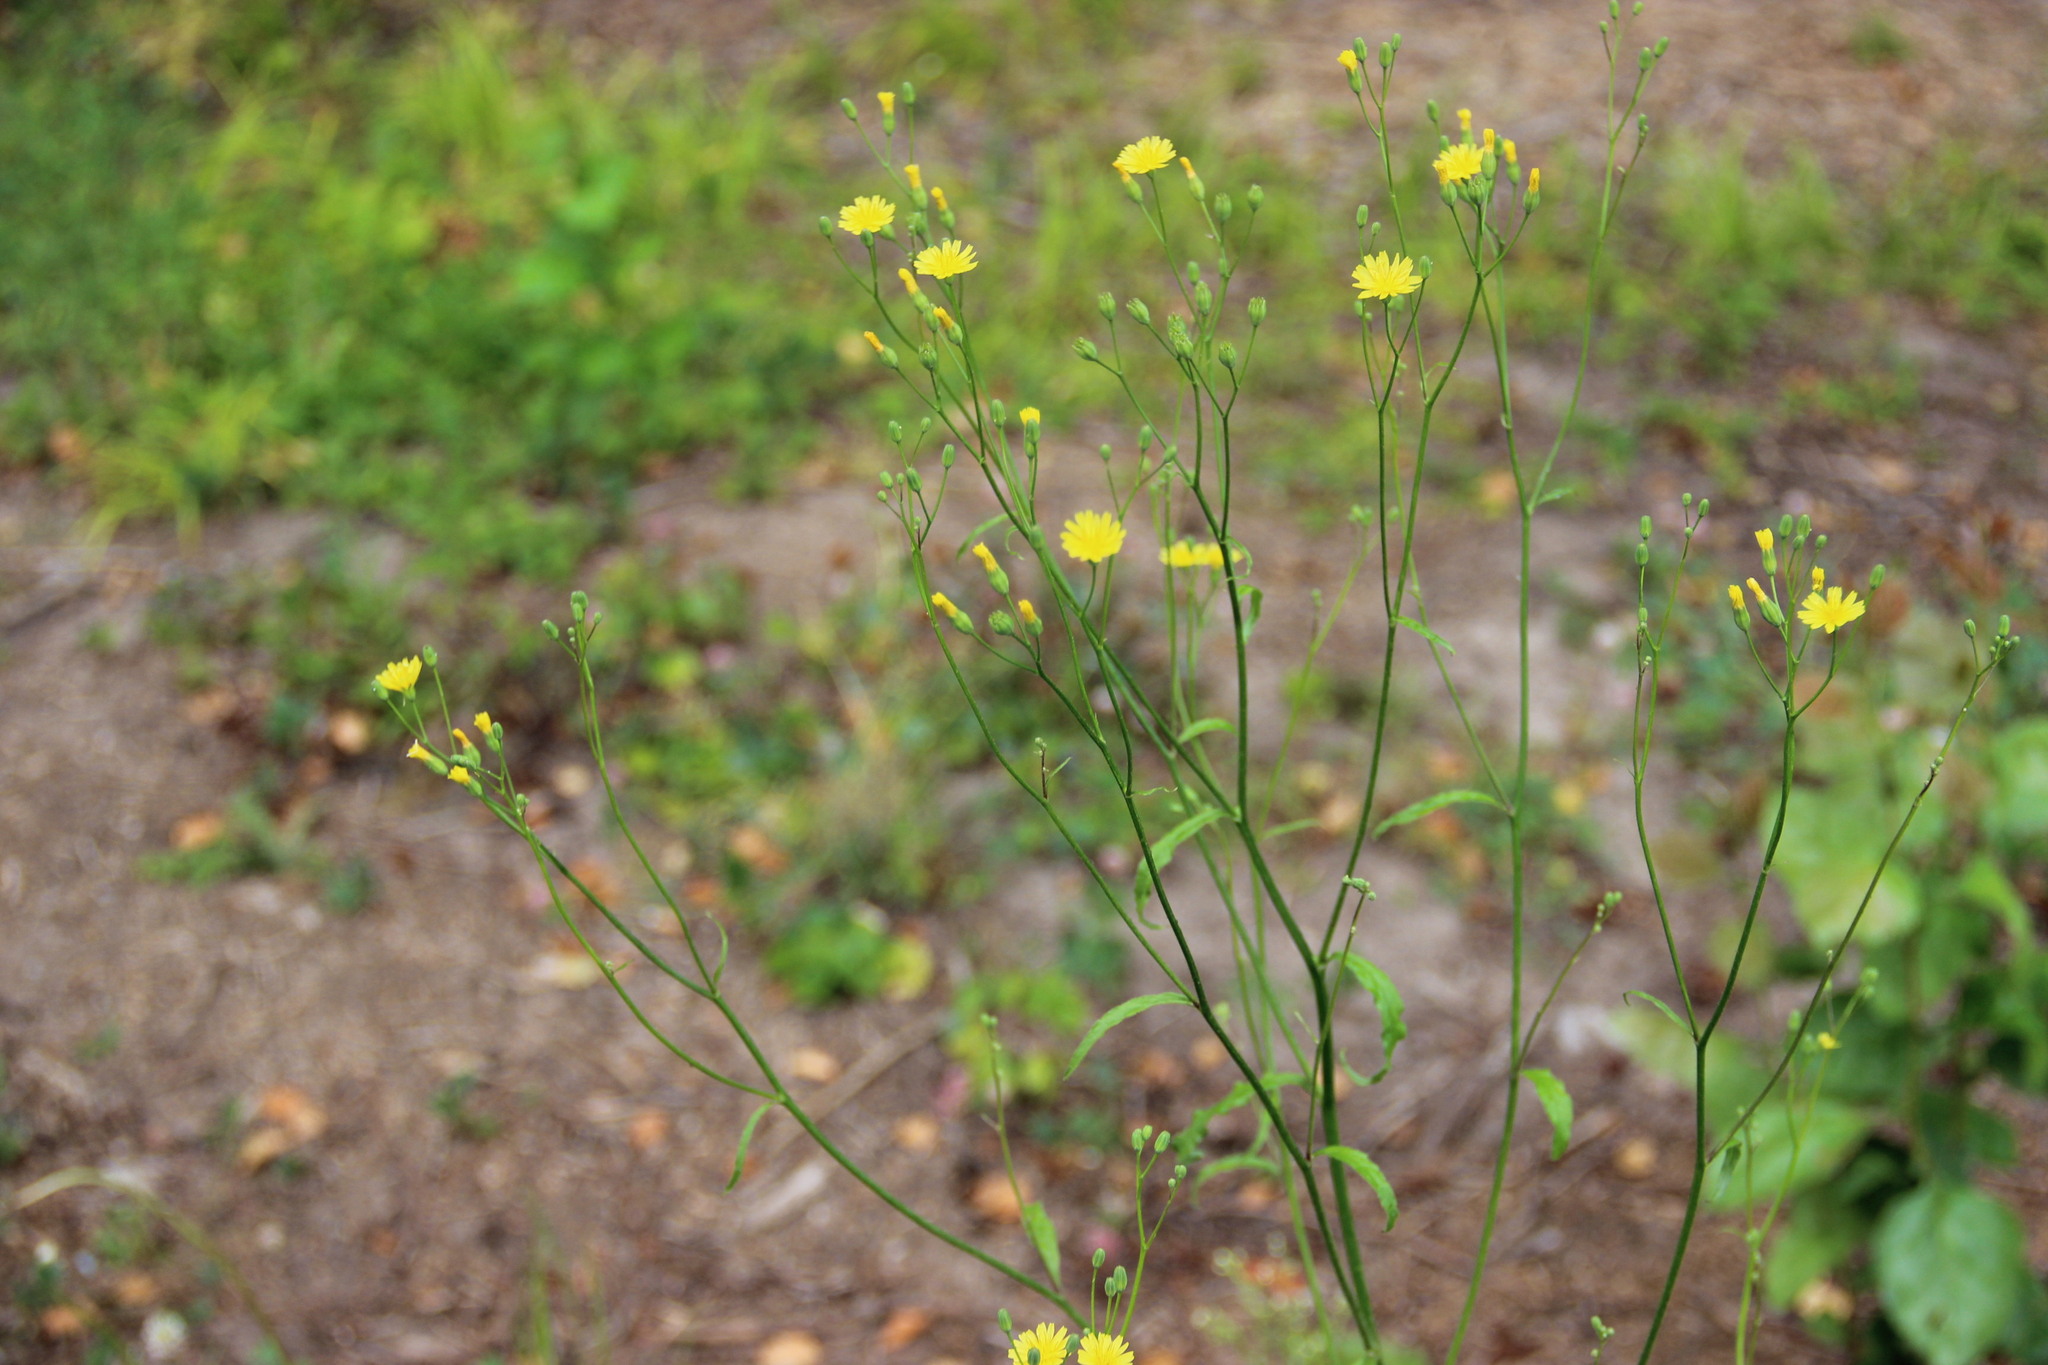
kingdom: Plantae
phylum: Tracheophyta
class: Magnoliopsida
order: Asterales
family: Asteraceae
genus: Lapsana
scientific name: Lapsana communis
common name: Nipplewort
